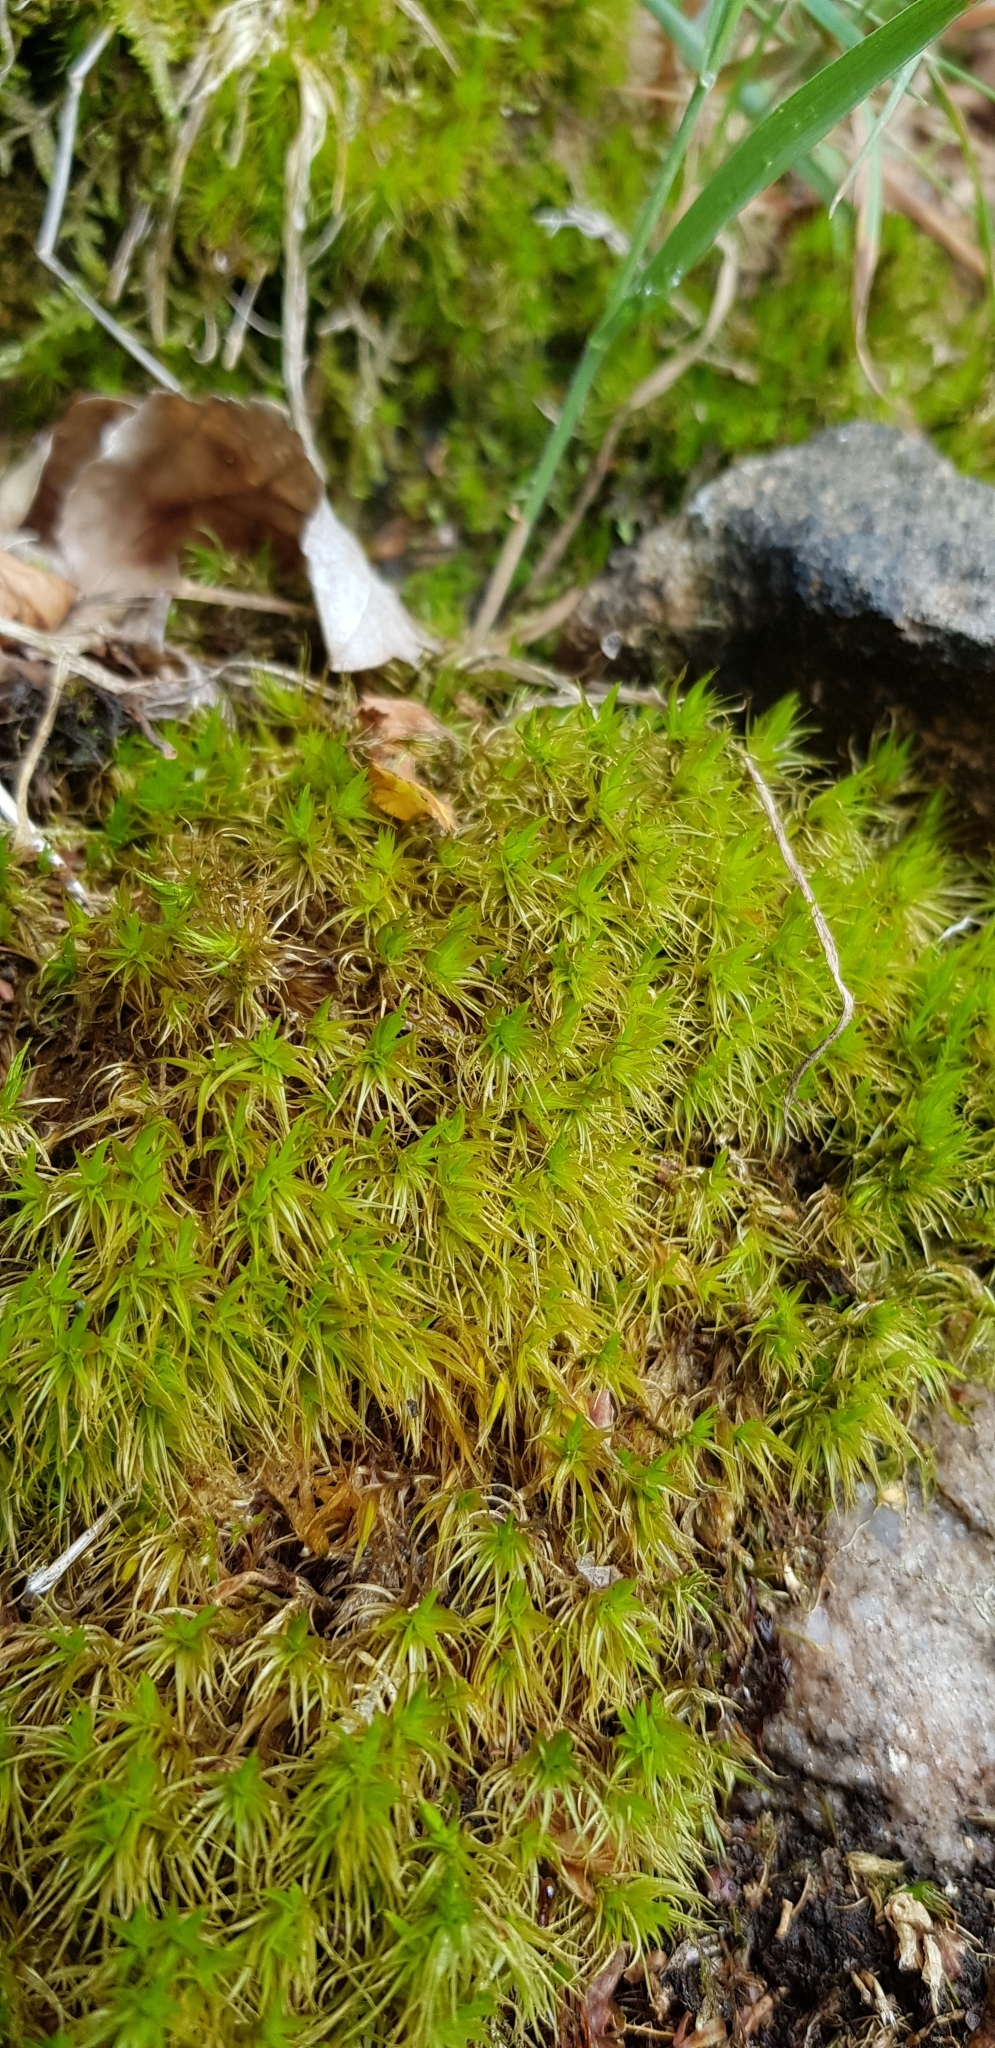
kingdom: Plantae
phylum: Bryophyta
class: Bryopsida
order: Dicranales
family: Dicranaceae
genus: Dicranum
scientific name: Dicranum scoparium
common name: Broom fork-moss
